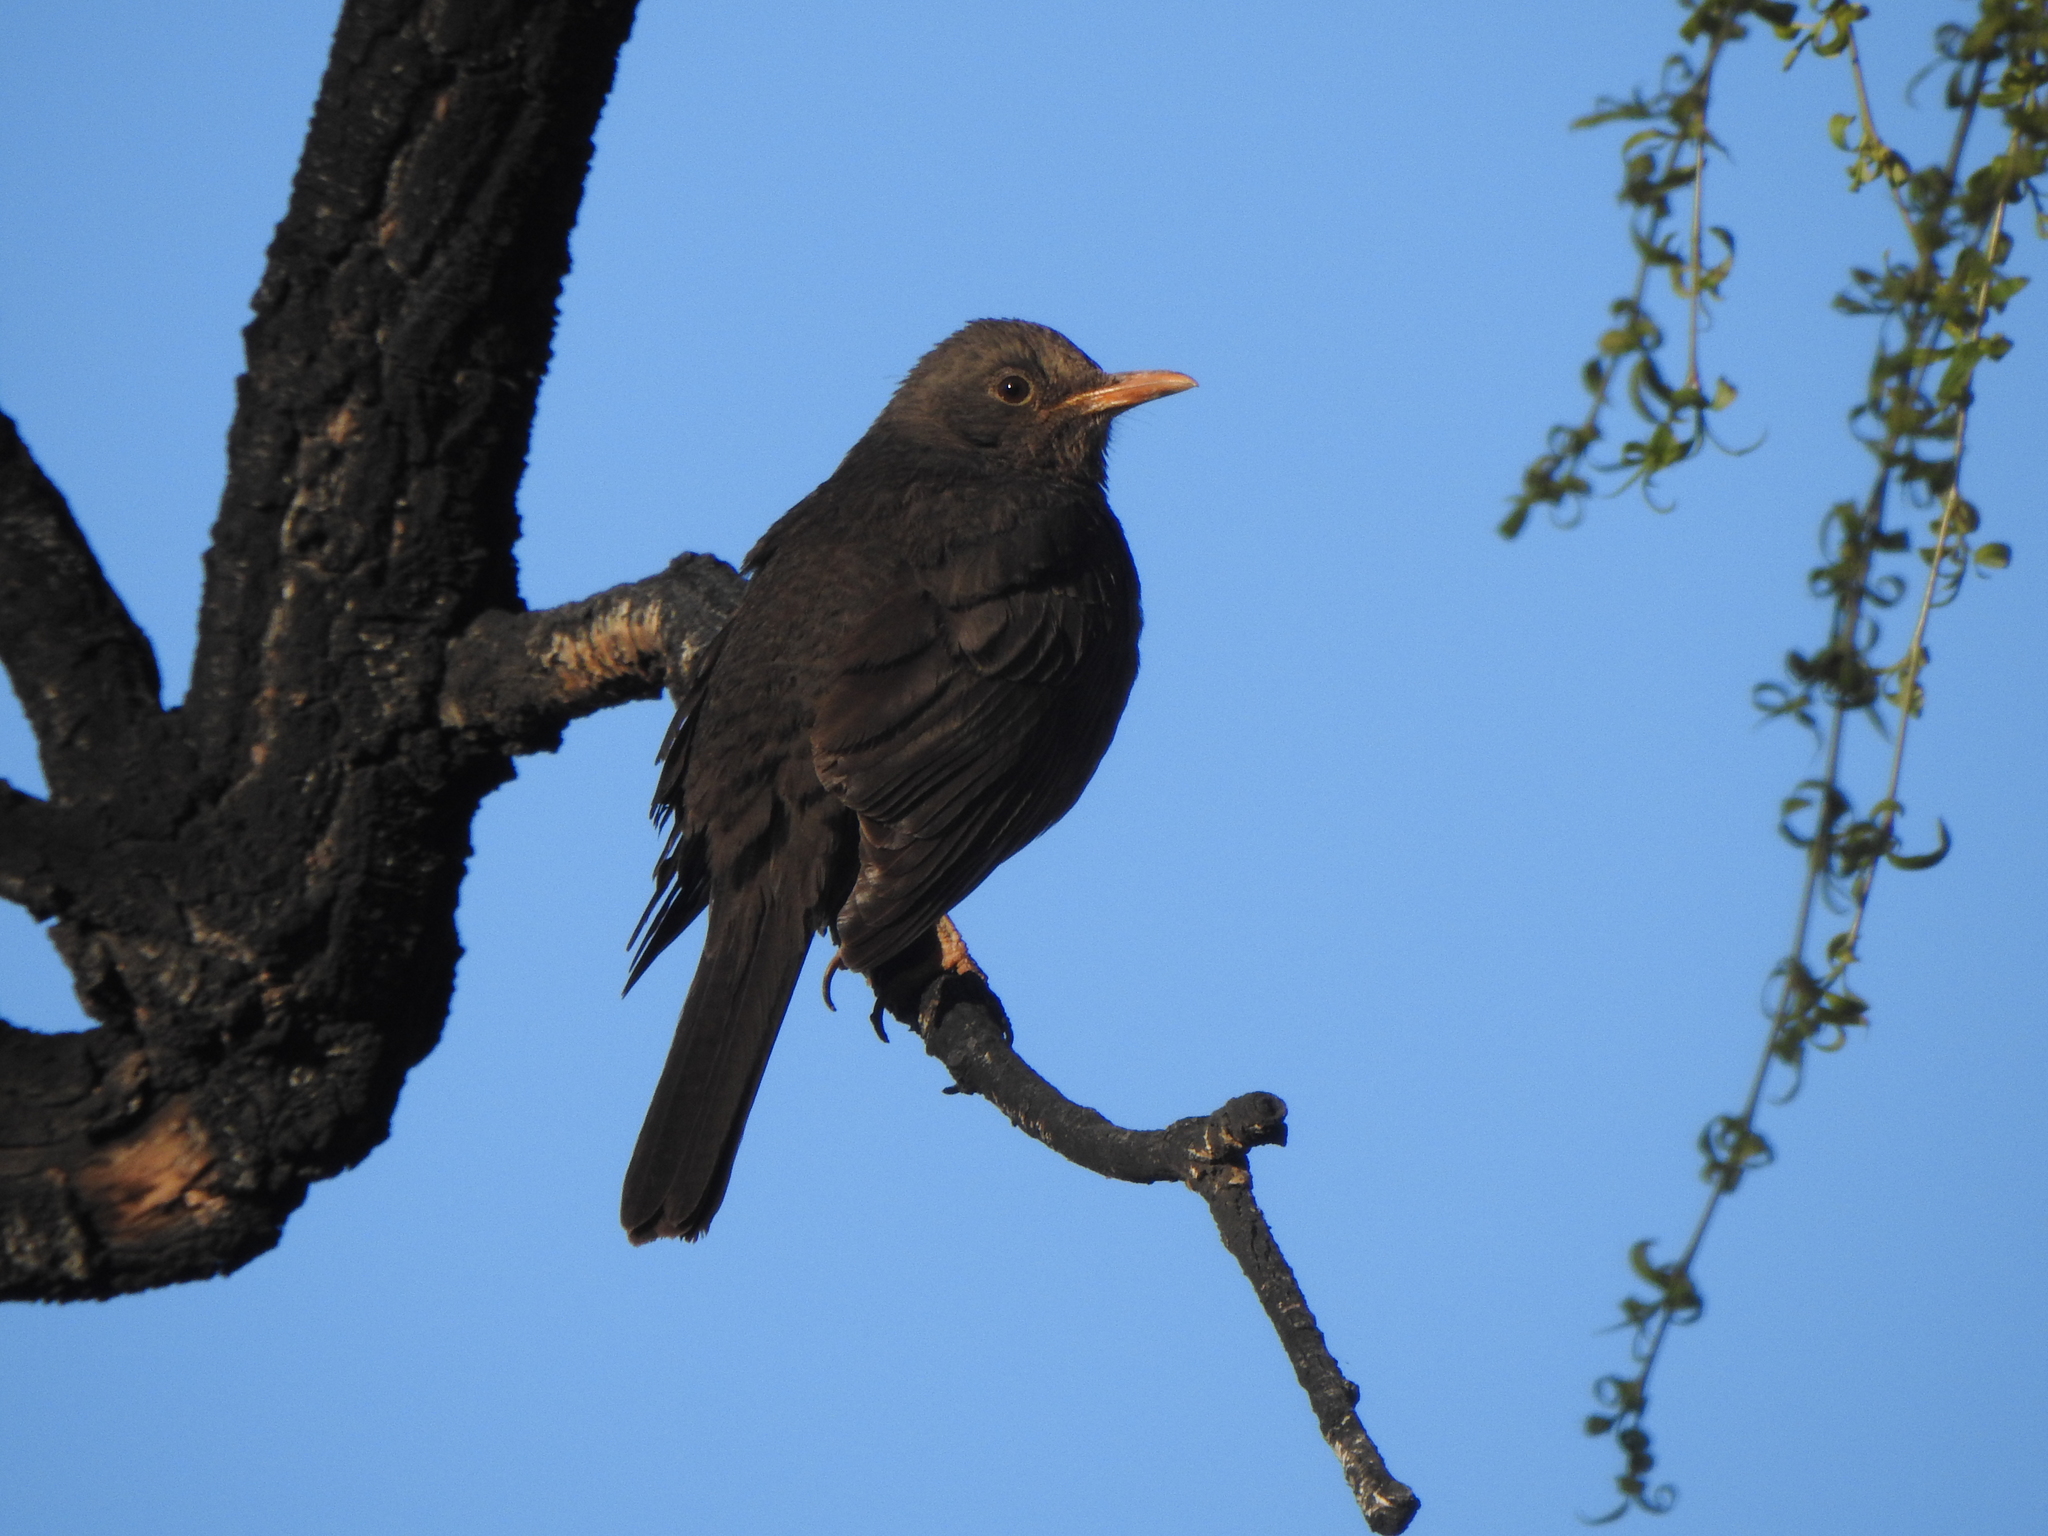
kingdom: Animalia
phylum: Chordata
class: Aves
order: Passeriformes
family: Turdidae
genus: Turdus
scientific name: Turdus chiguanco
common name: Chiguanco thrush
